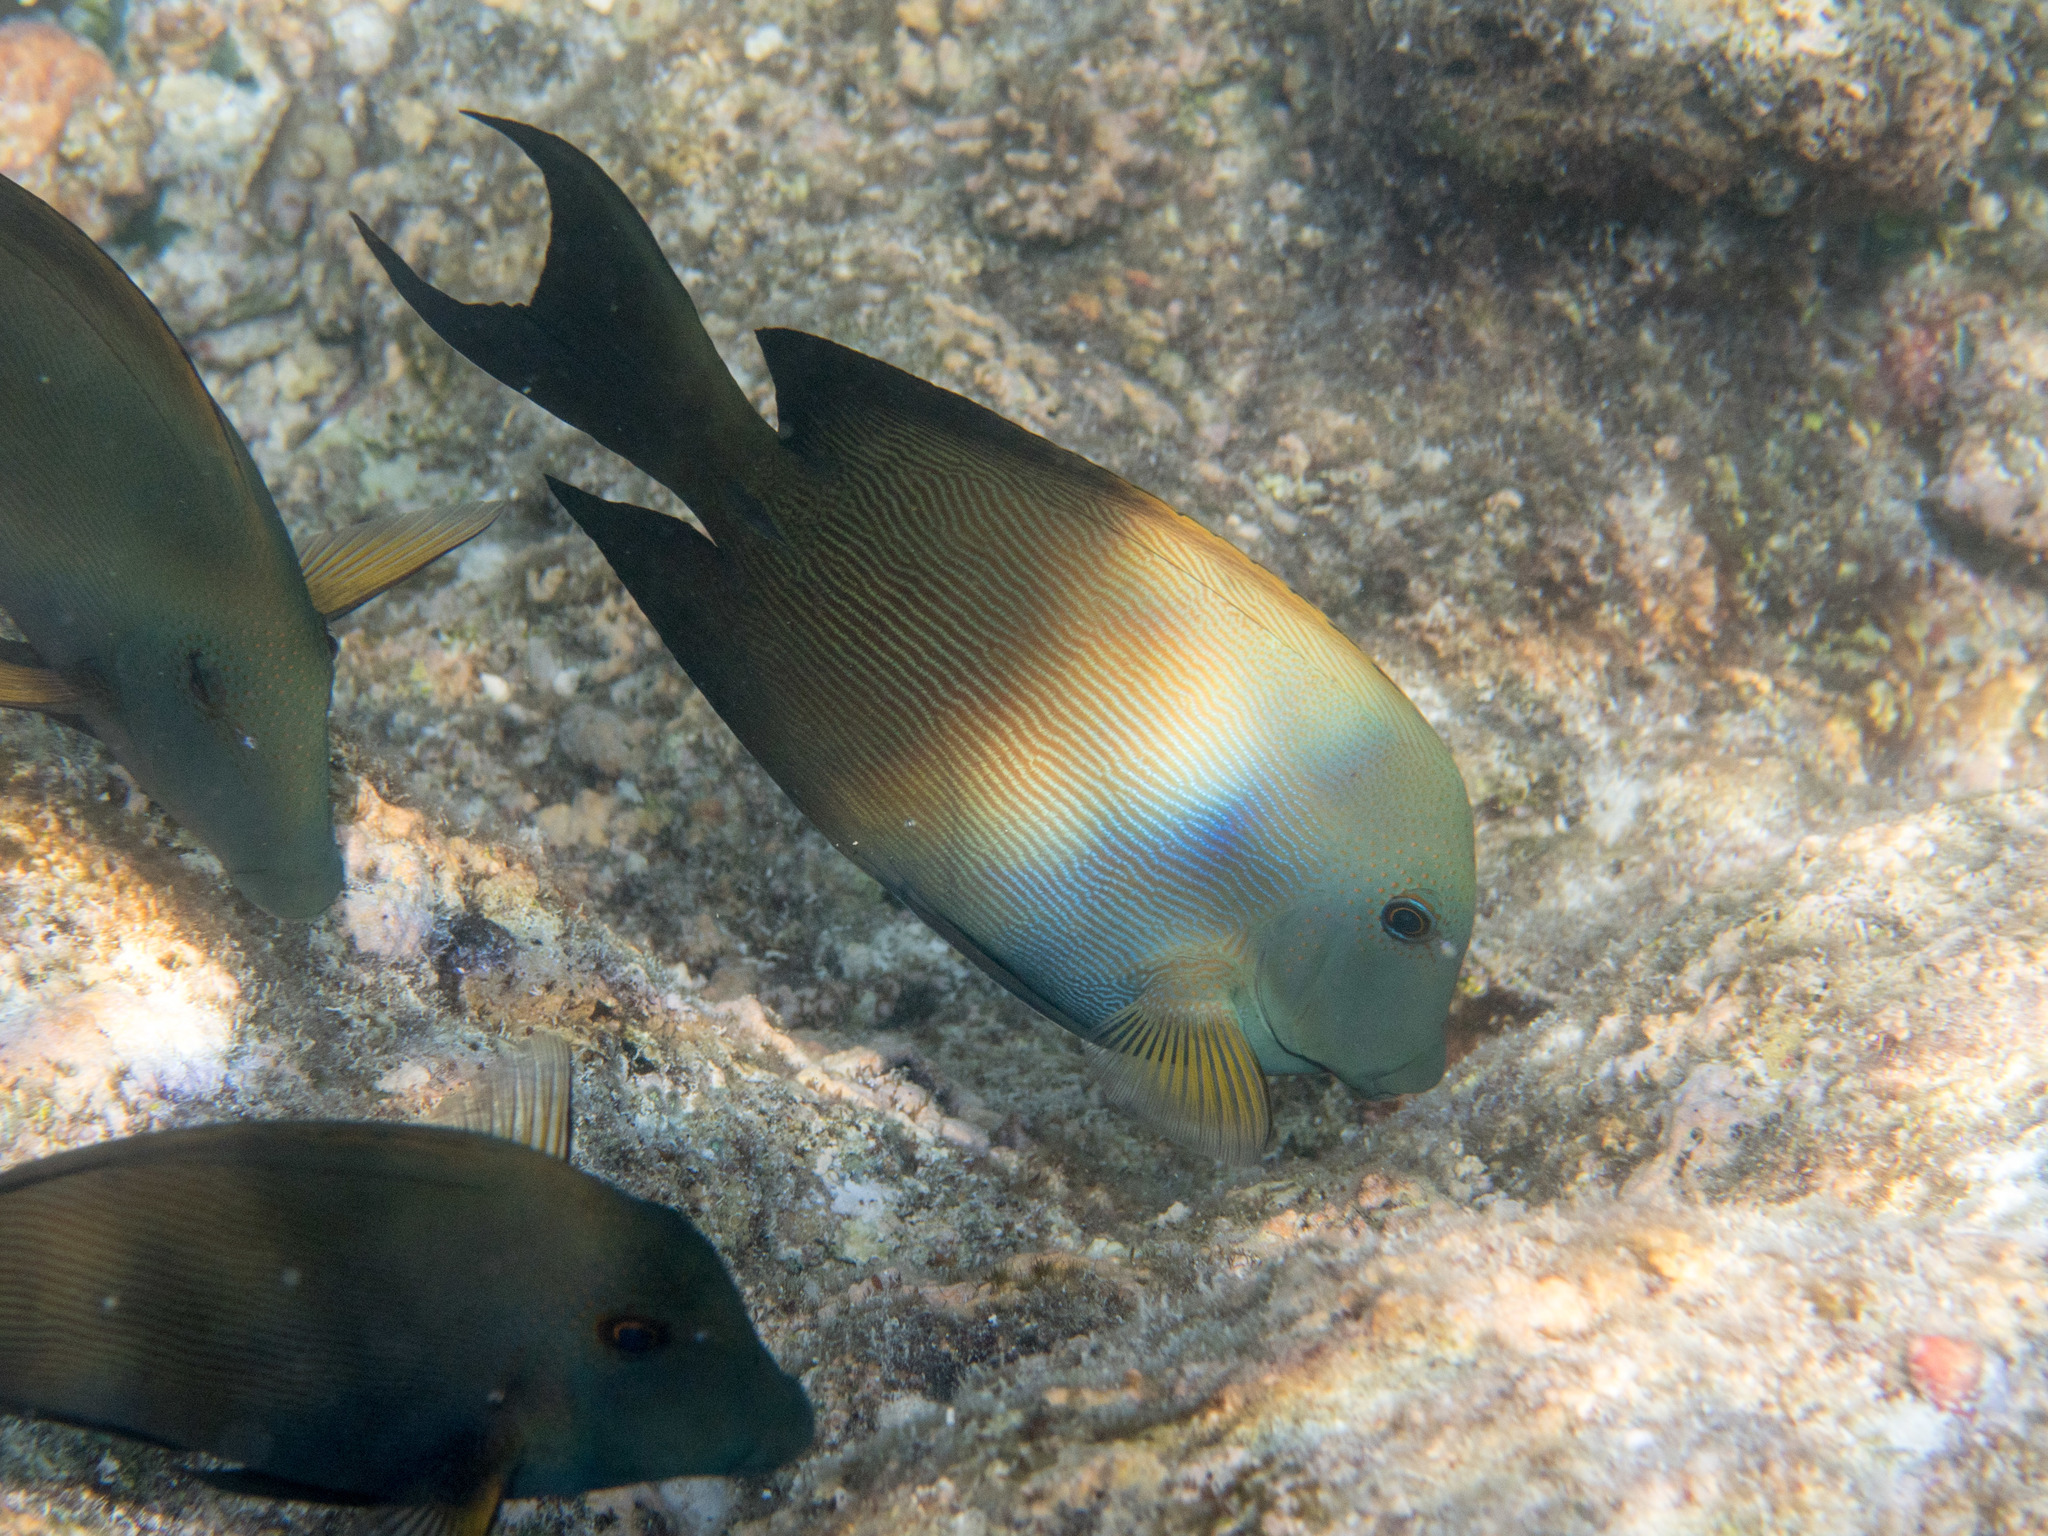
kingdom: Animalia
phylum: Chordata
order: Perciformes
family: Acanthuridae
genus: Ctenochaetus
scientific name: Ctenochaetus striatus
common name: Bristle-toothed surgeonfish
